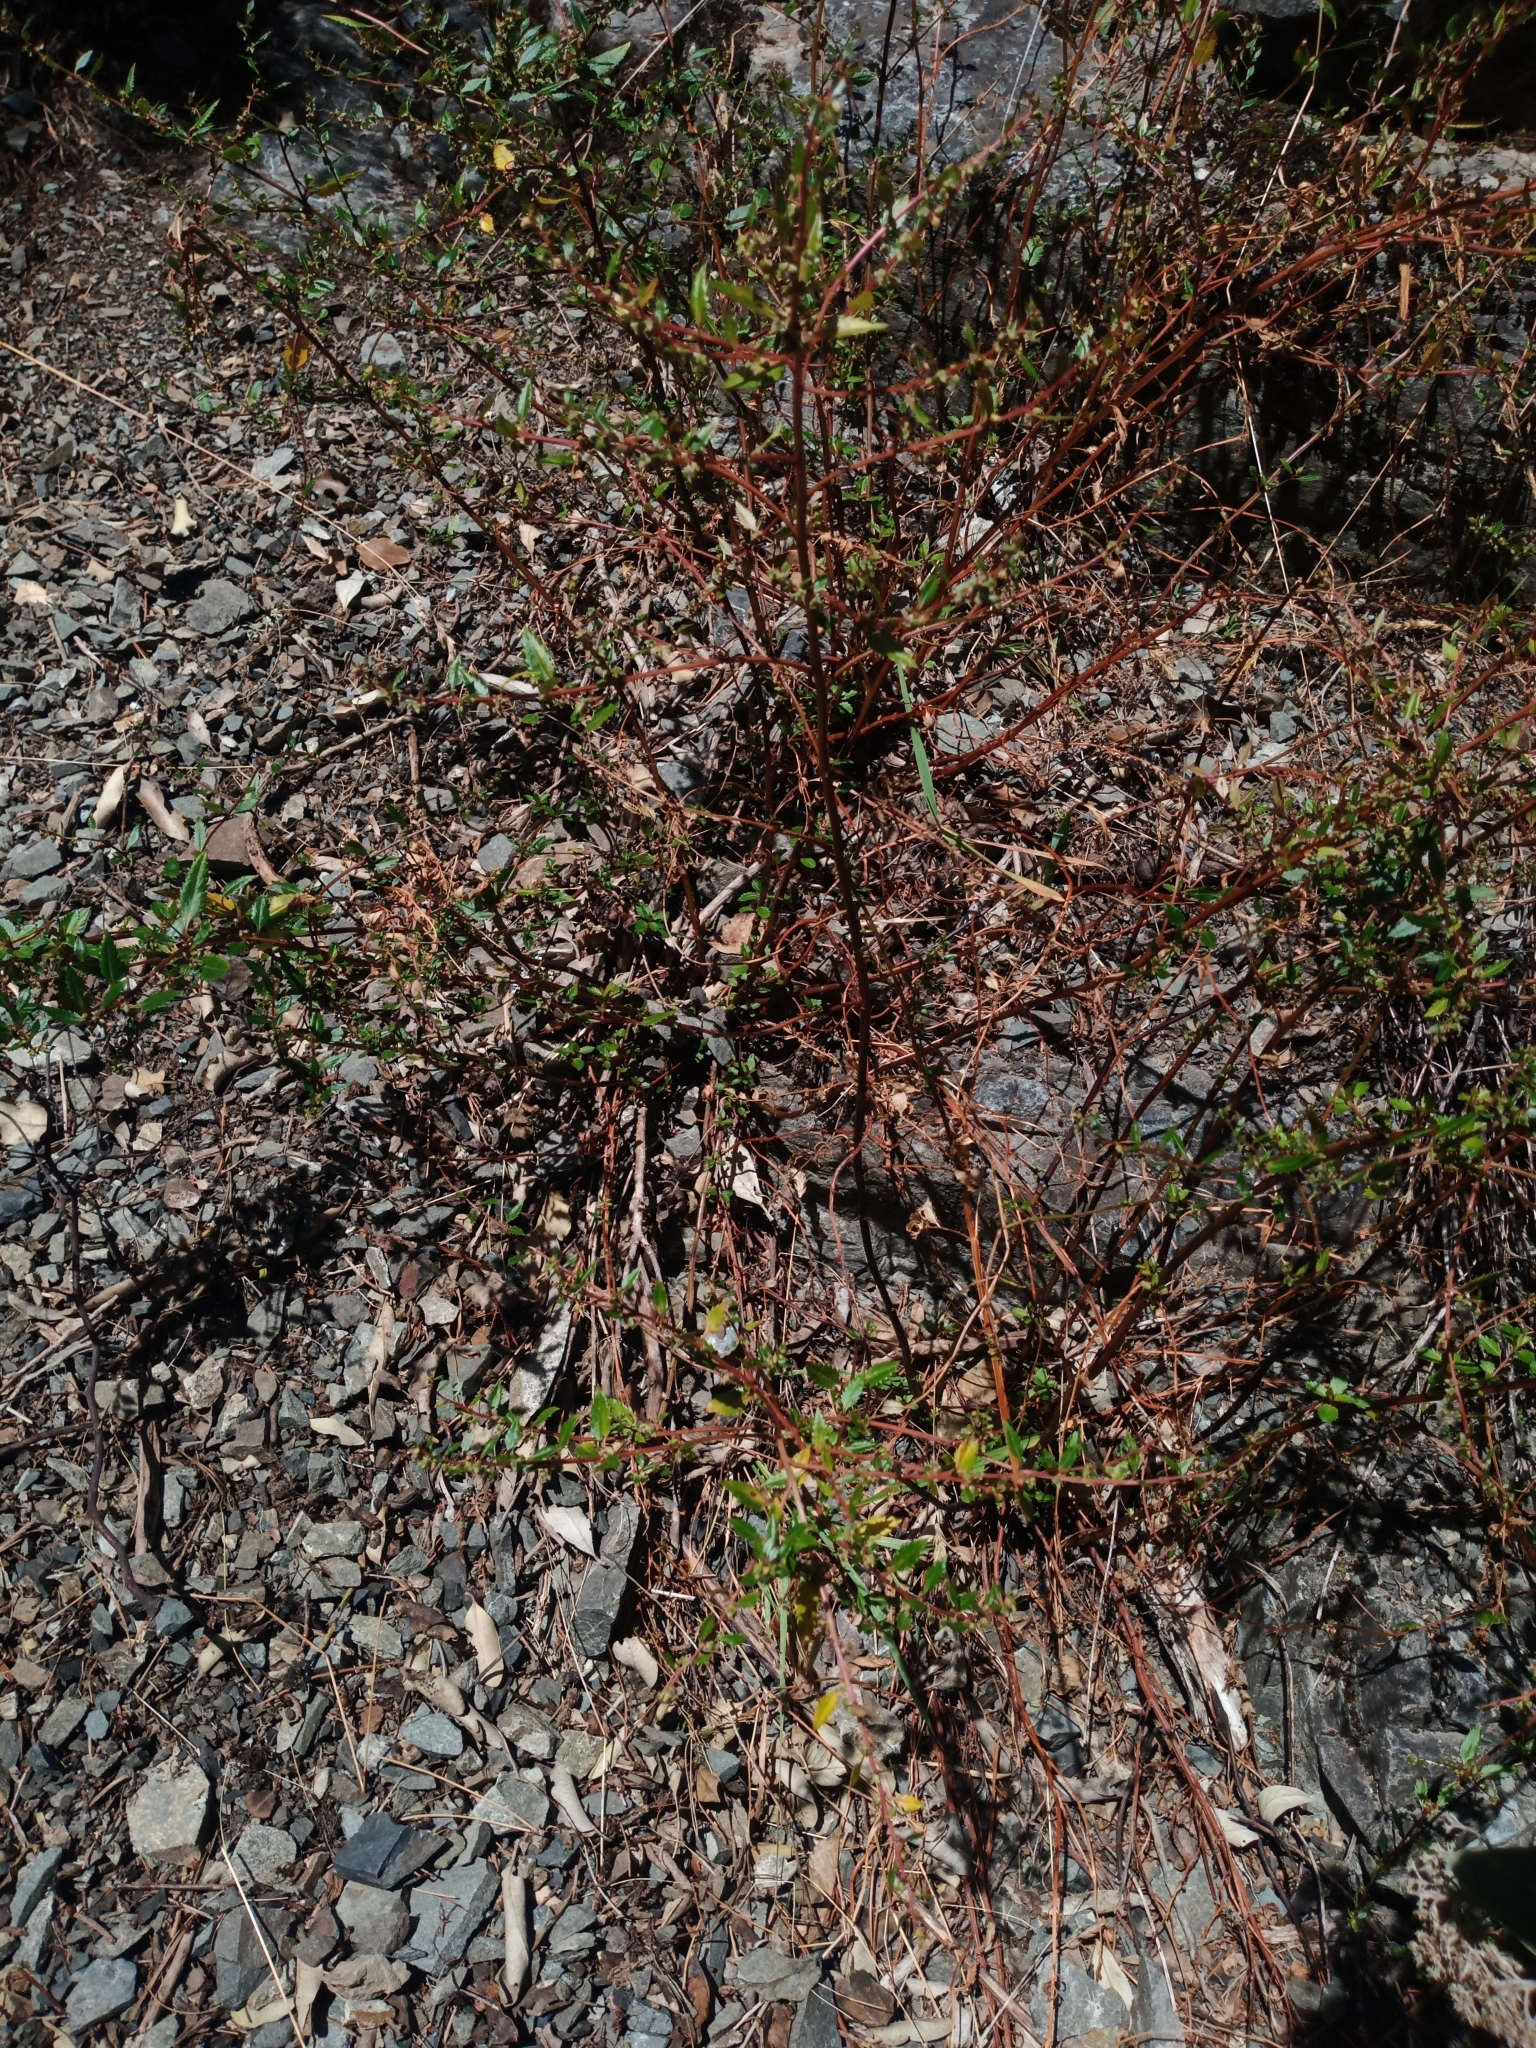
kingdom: Plantae
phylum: Tracheophyta
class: Magnoliopsida
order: Saxifragales
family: Haloragaceae
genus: Haloragis
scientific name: Haloragis erecta
